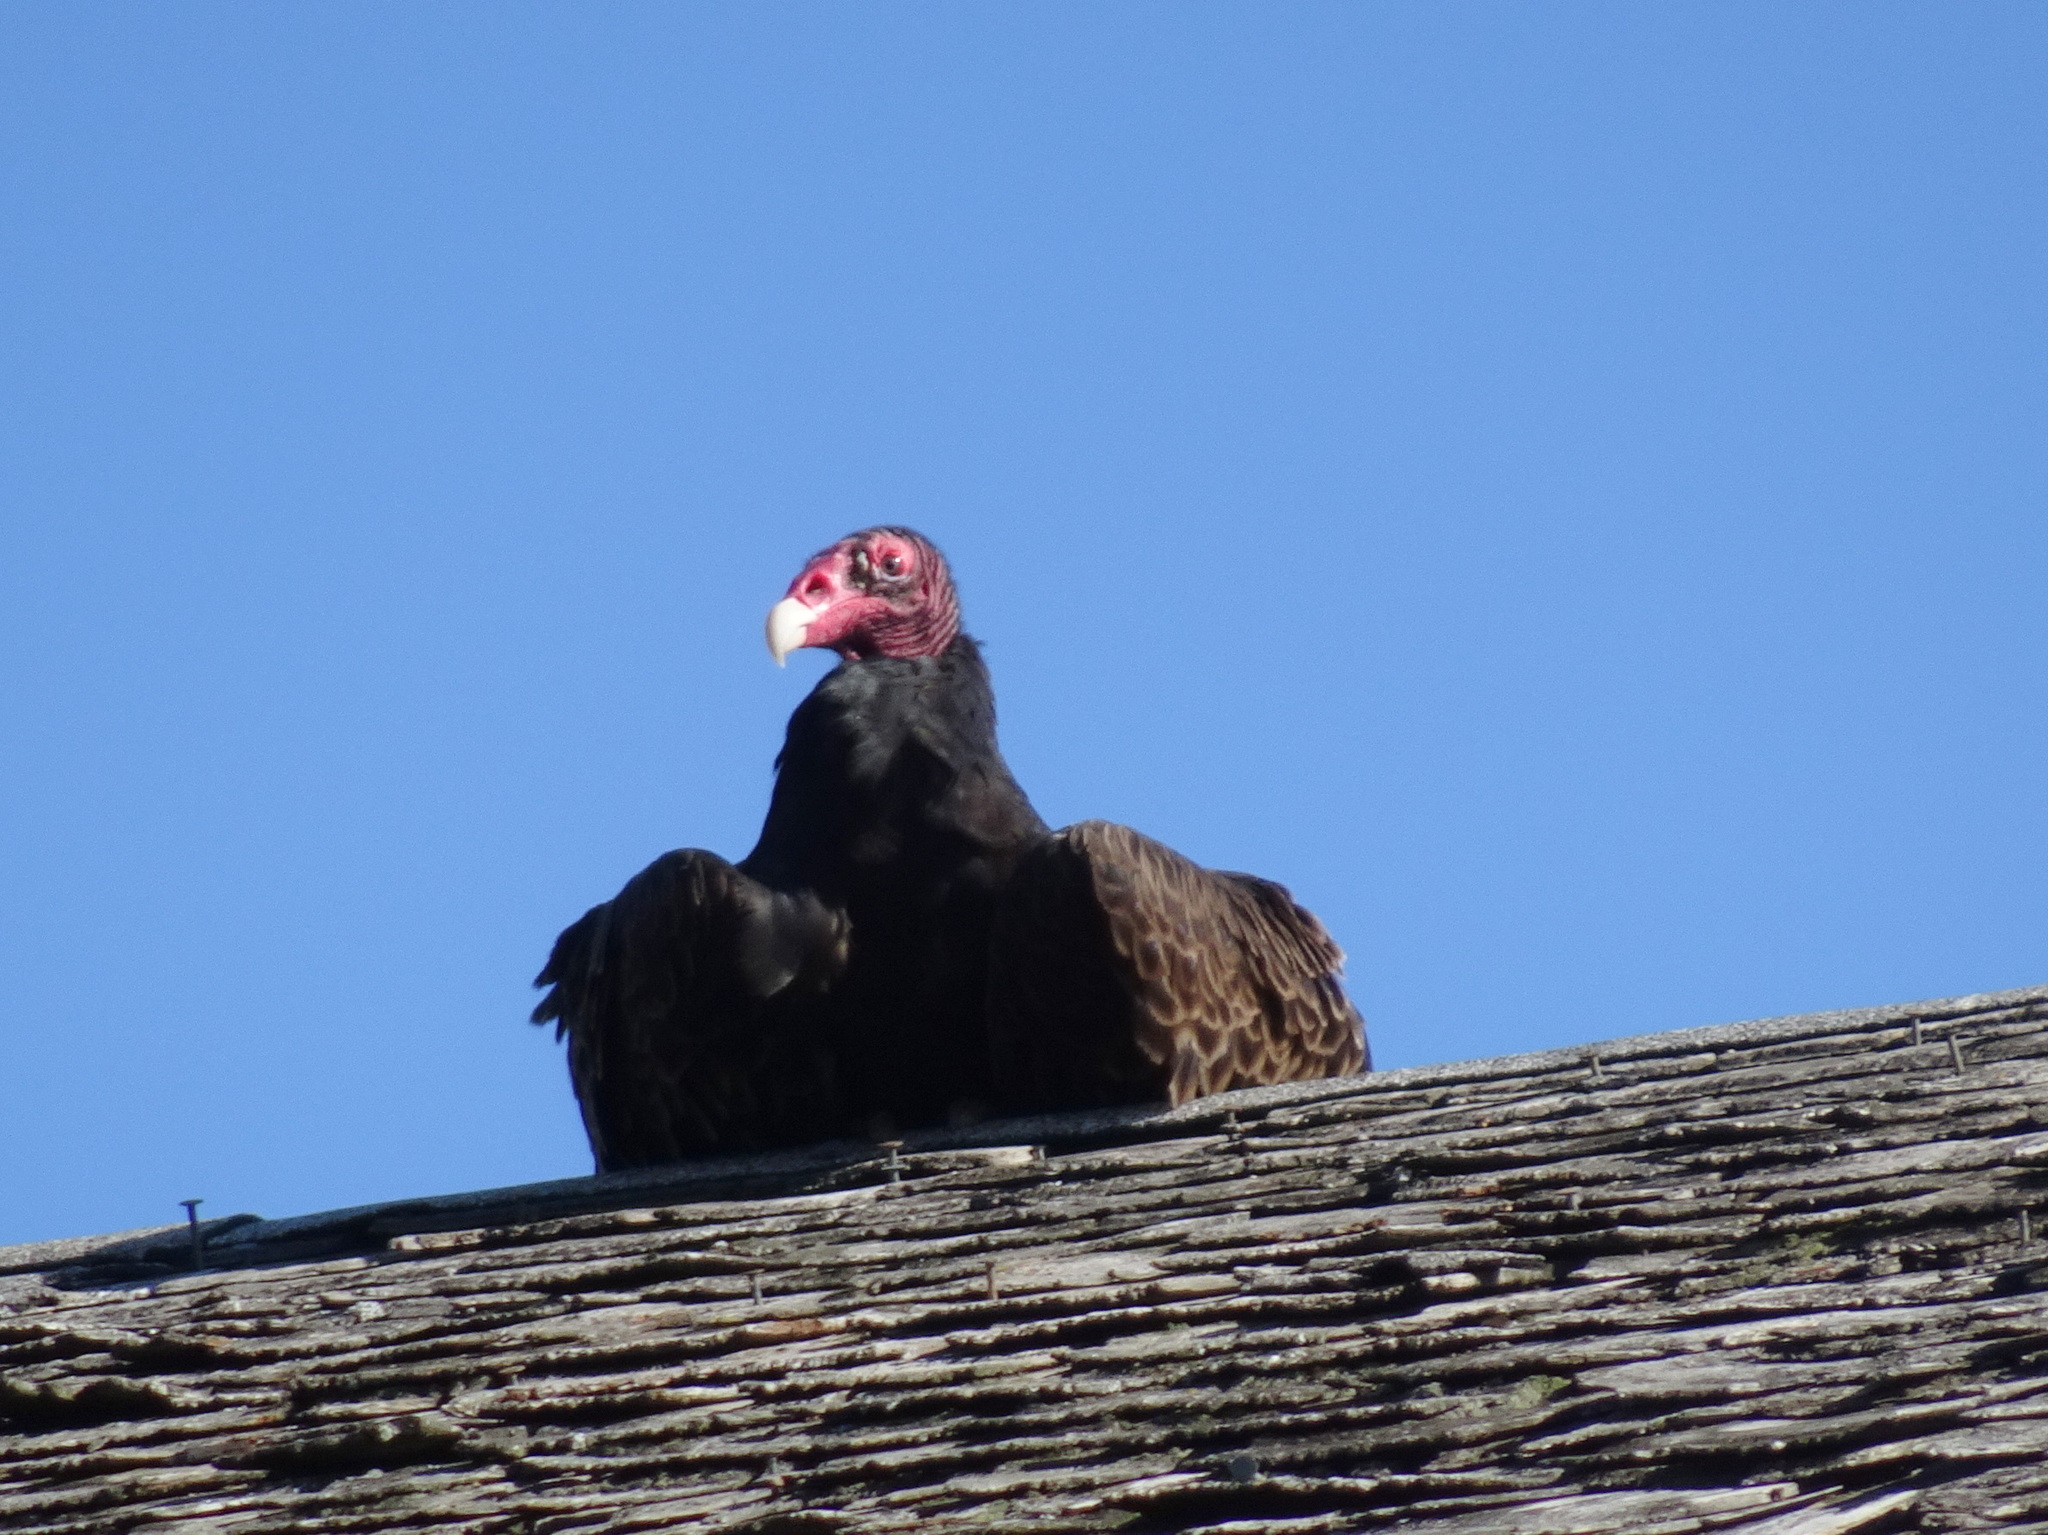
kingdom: Animalia
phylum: Chordata
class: Aves
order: Accipitriformes
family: Cathartidae
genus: Cathartes
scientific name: Cathartes aura
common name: Turkey vulture
